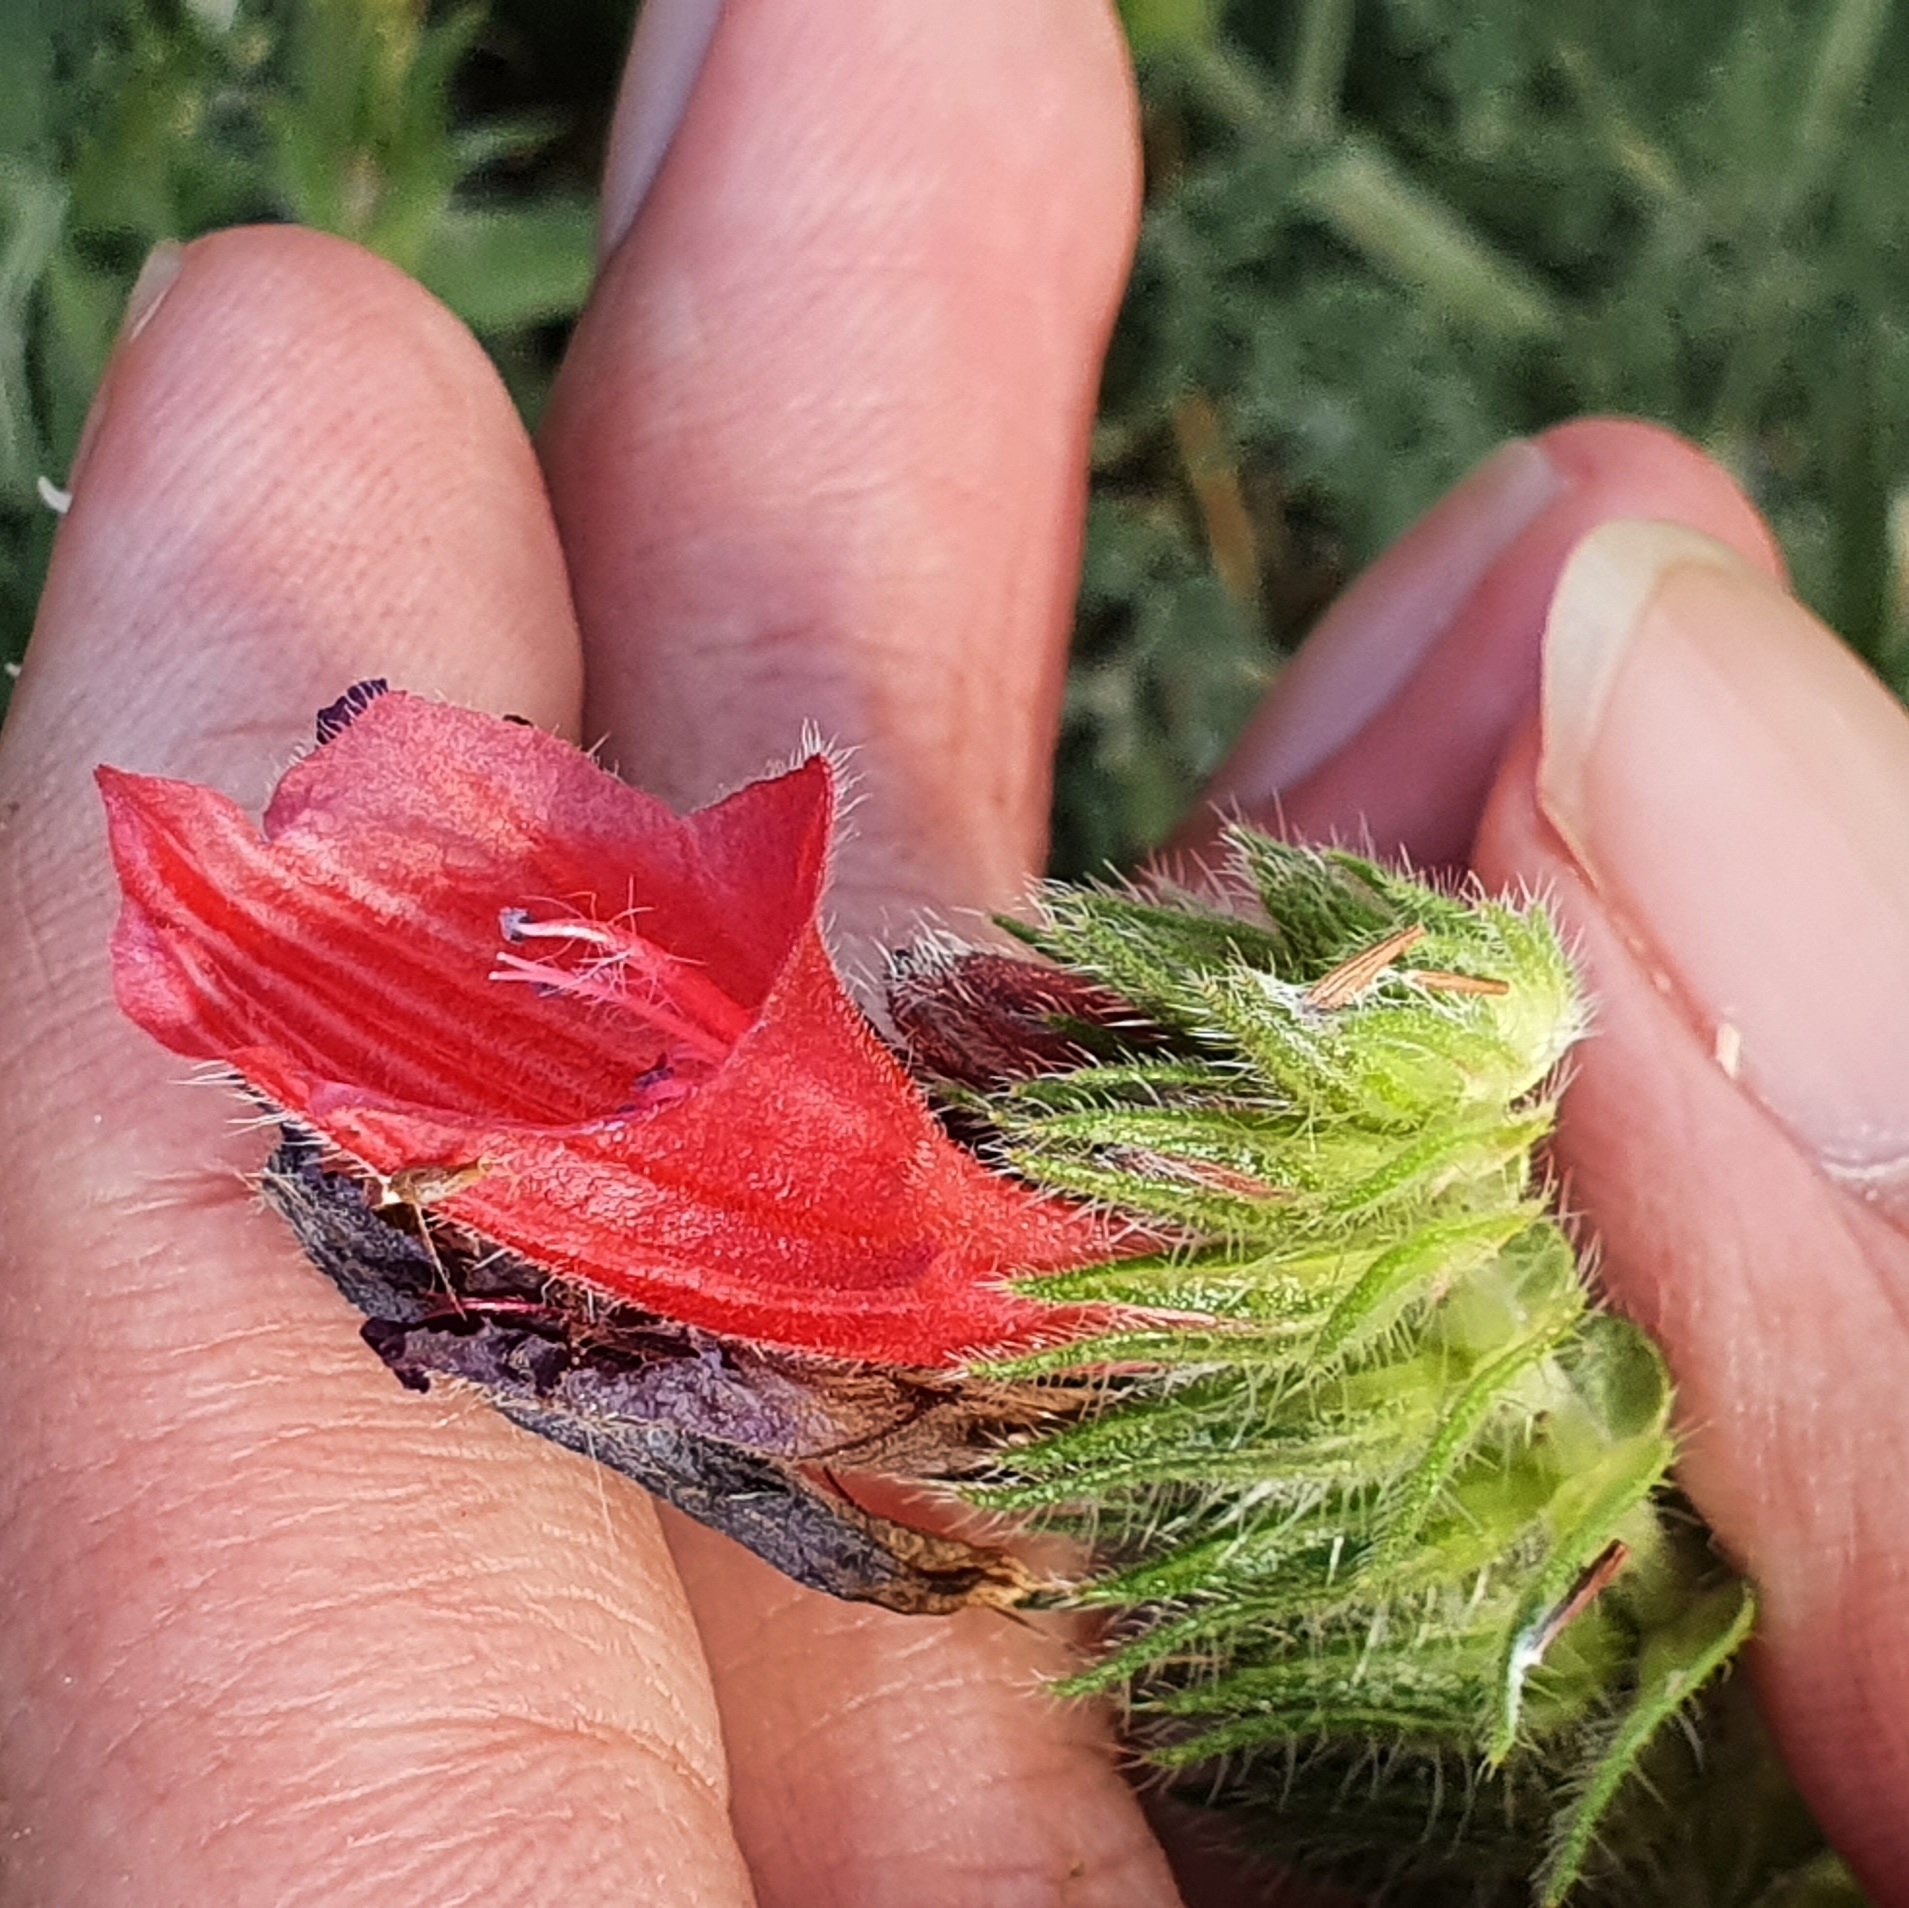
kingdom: Plantae
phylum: Tracheophyta
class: Magnoliopsida
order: Boraginales
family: Boraginaceae
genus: Echium
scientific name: Echium creticum
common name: Cretan viper's bugloss
